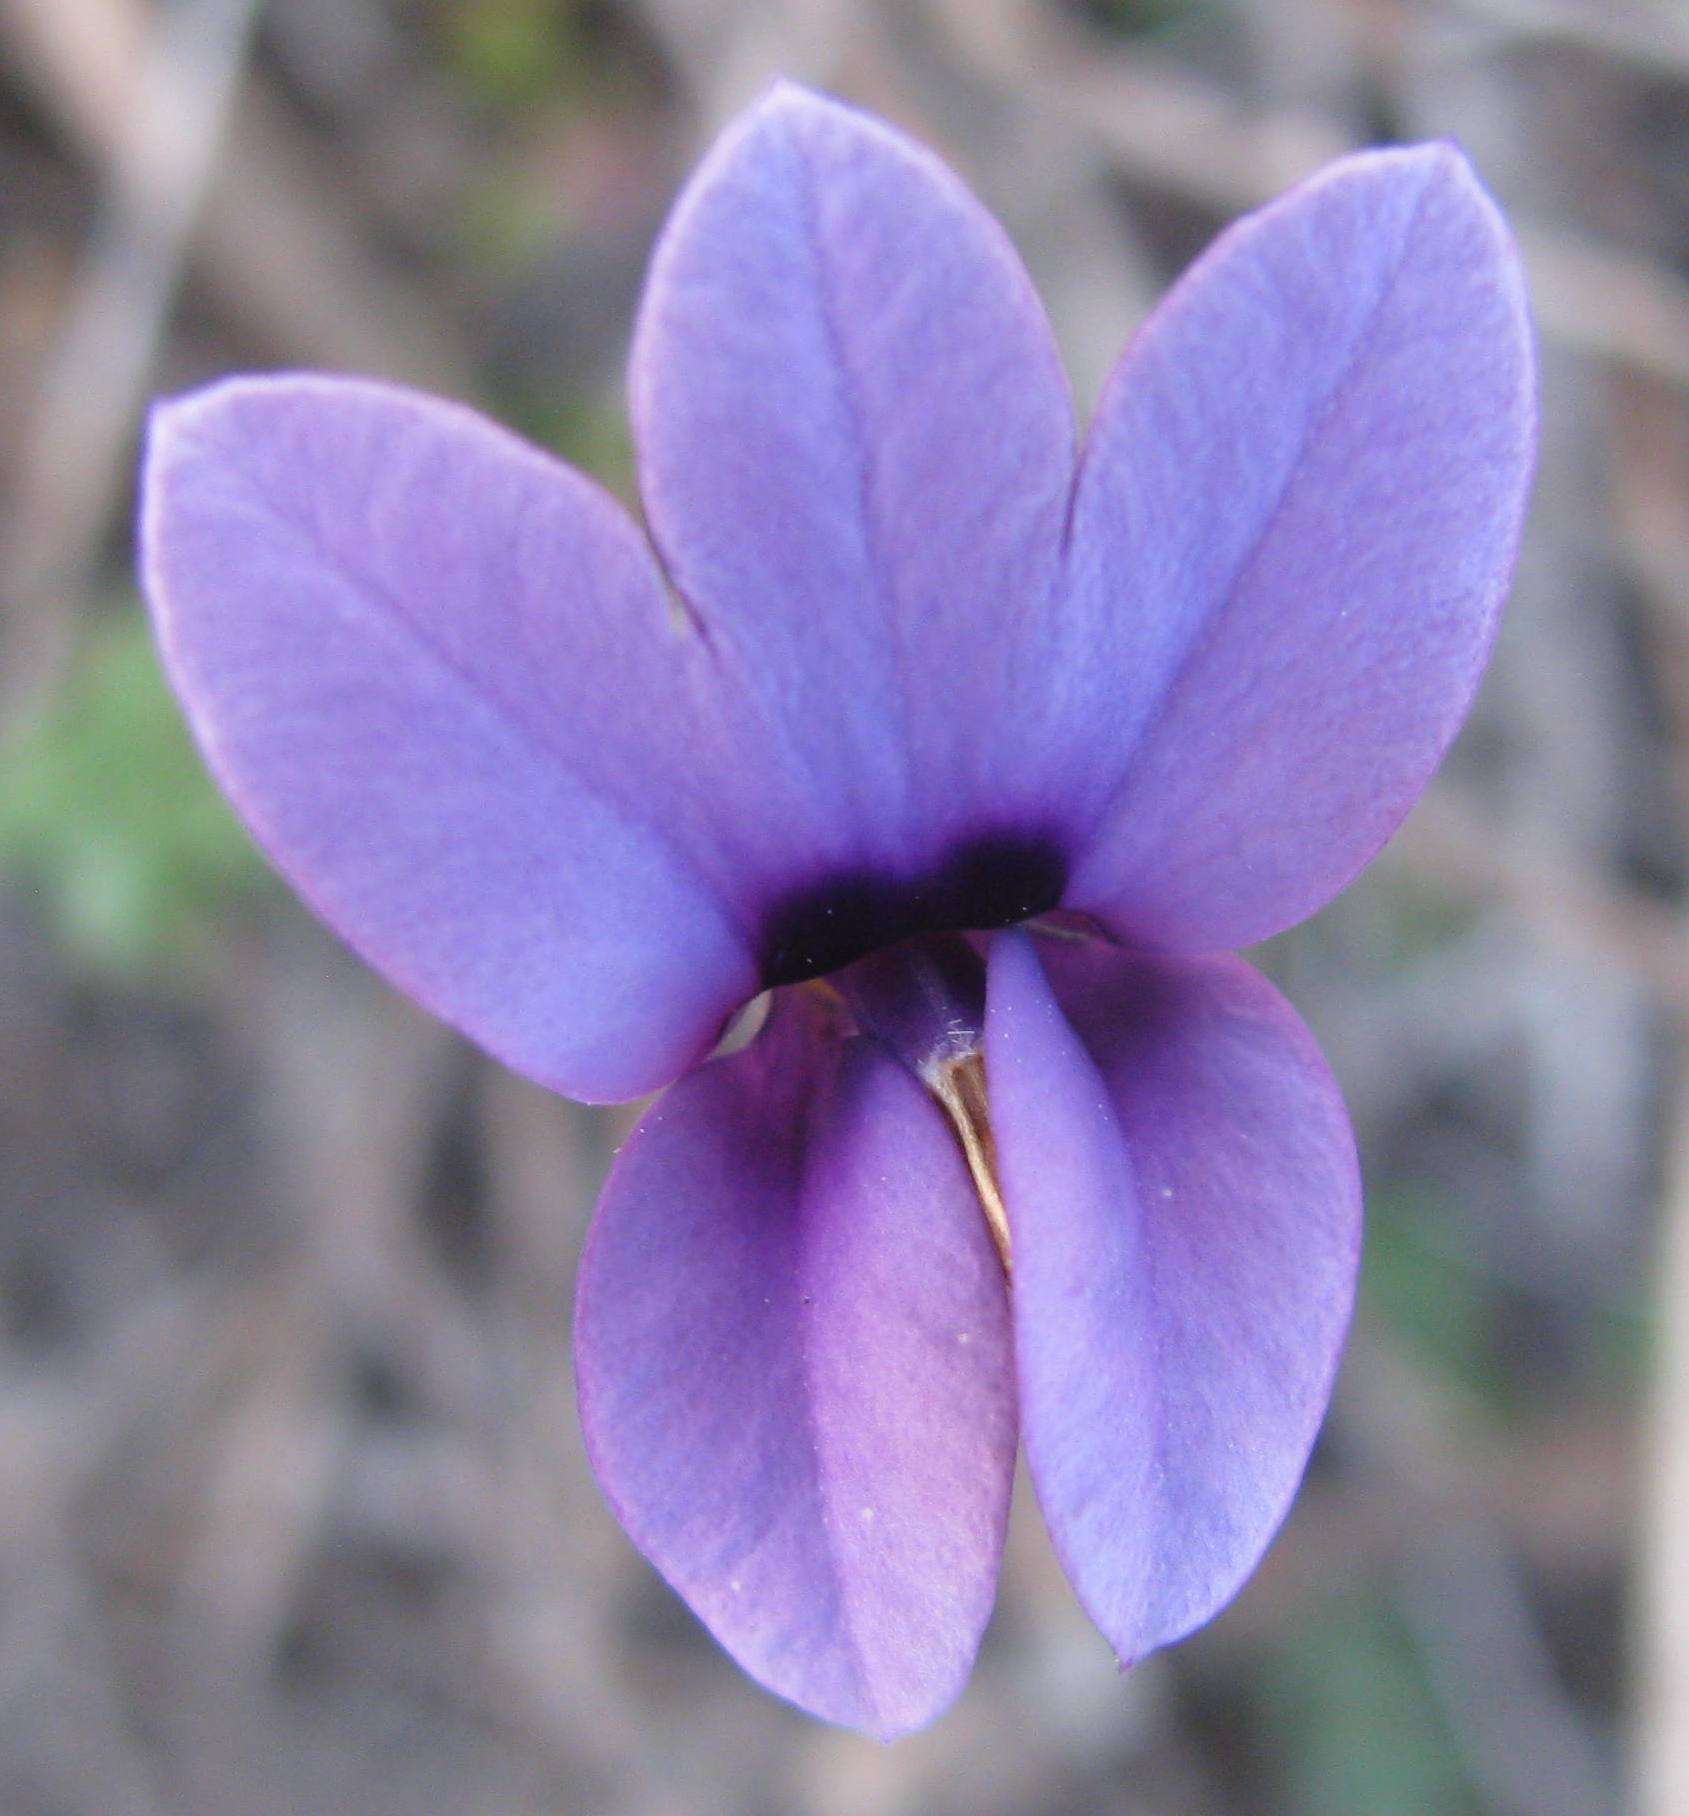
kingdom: Plantae
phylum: Tracheophyta
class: Magnoliopsida
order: Asterales
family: Campanulaceae
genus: Monopsis
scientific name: Monopsis unidentata
